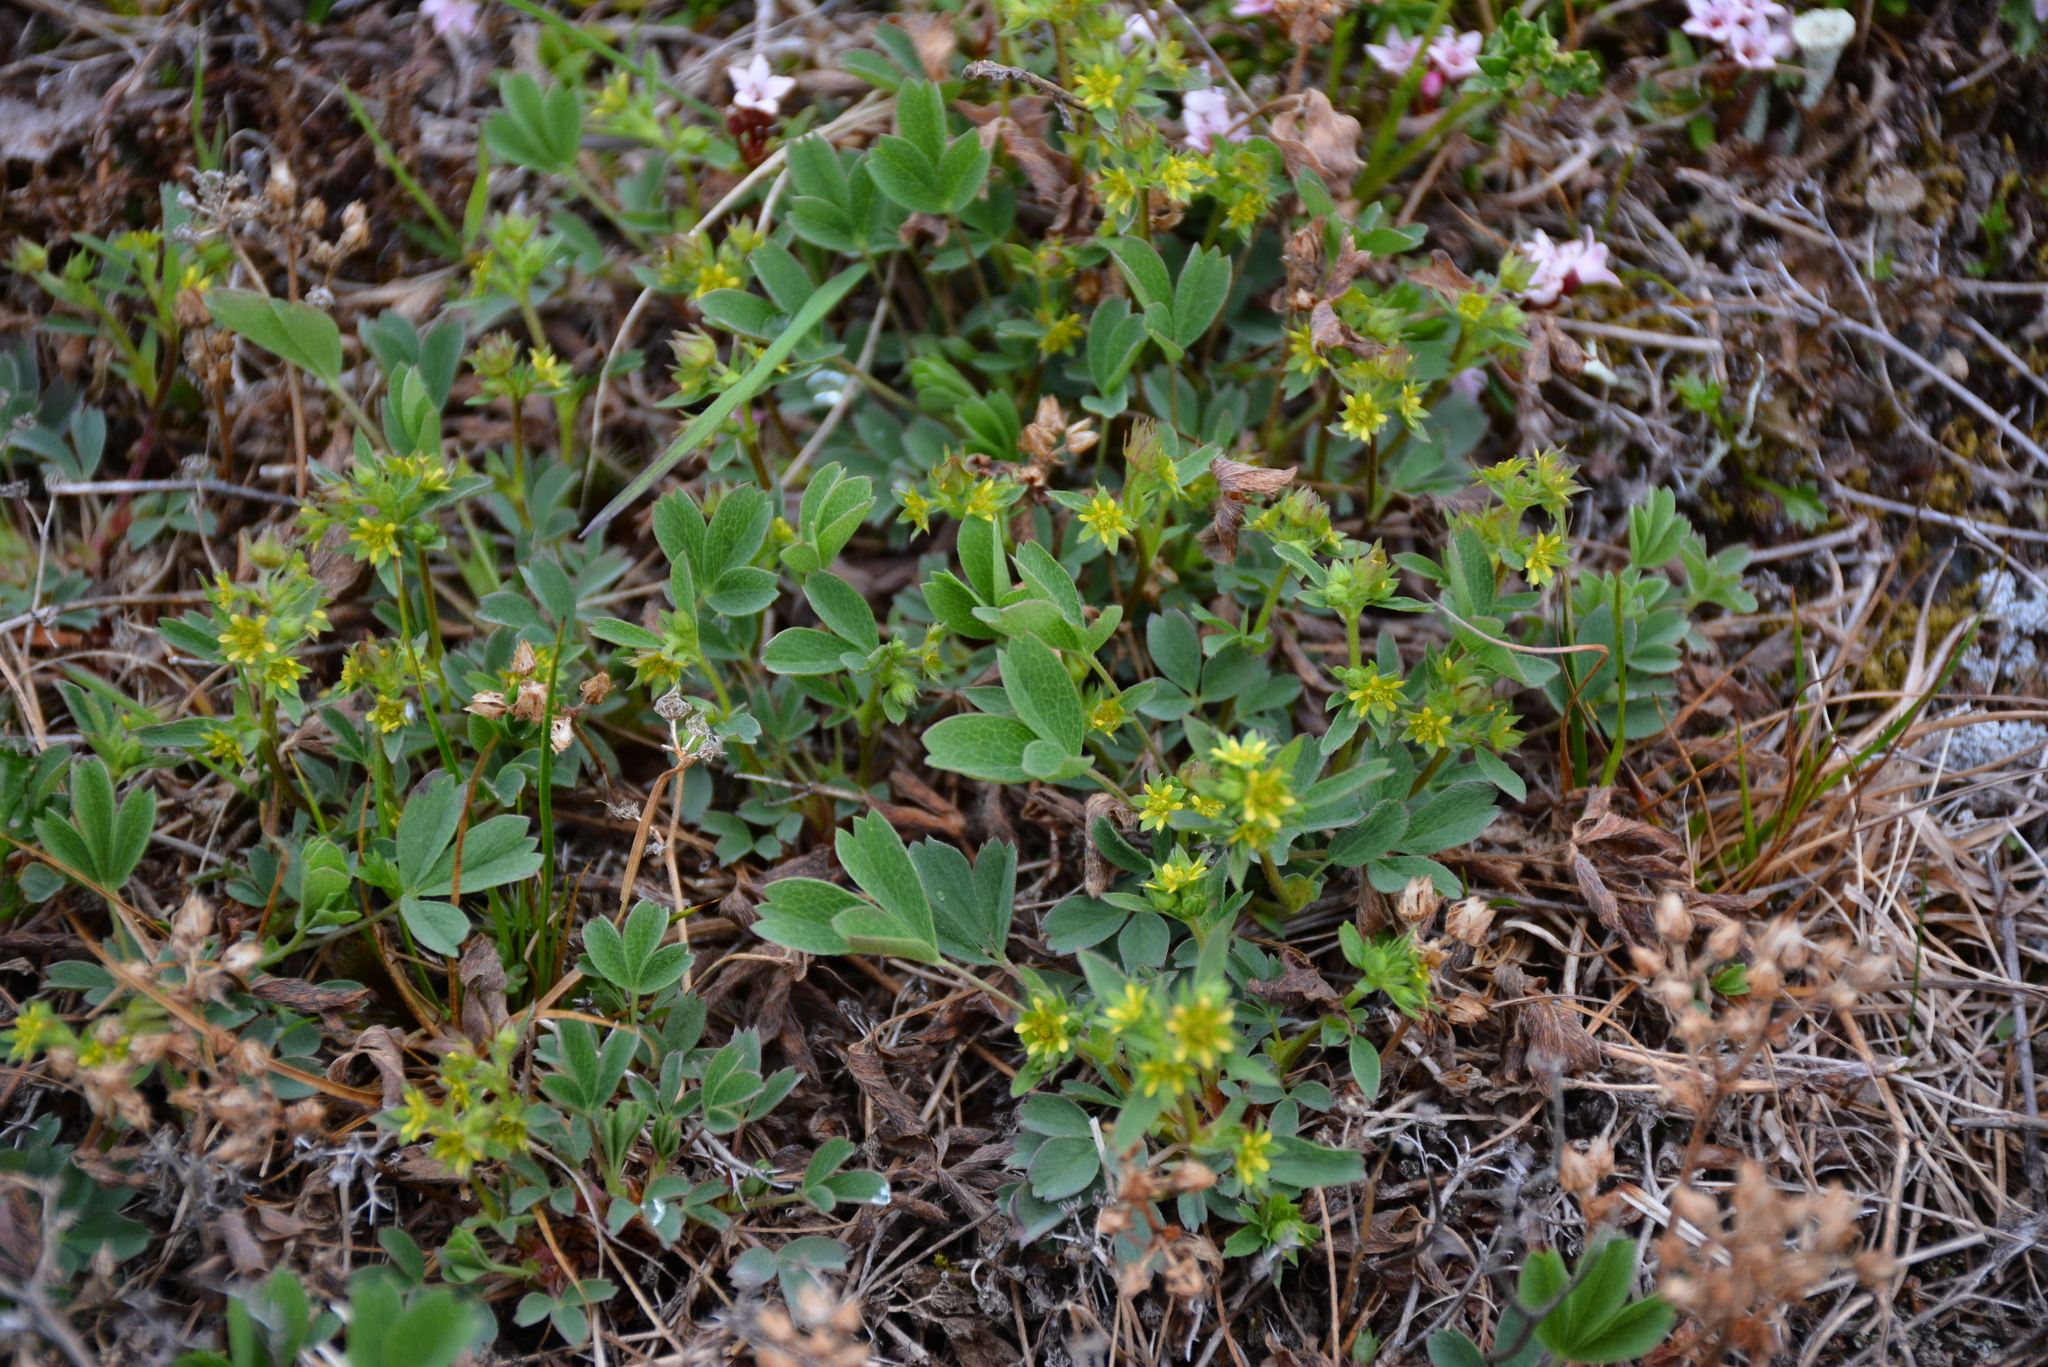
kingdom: Plantae
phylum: Tracheophyta
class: Magnoliopsida
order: Rosales
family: Rosaceae
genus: Sibbaldia
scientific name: Sibbaldia procumbens
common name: Creeping sibbaldia
